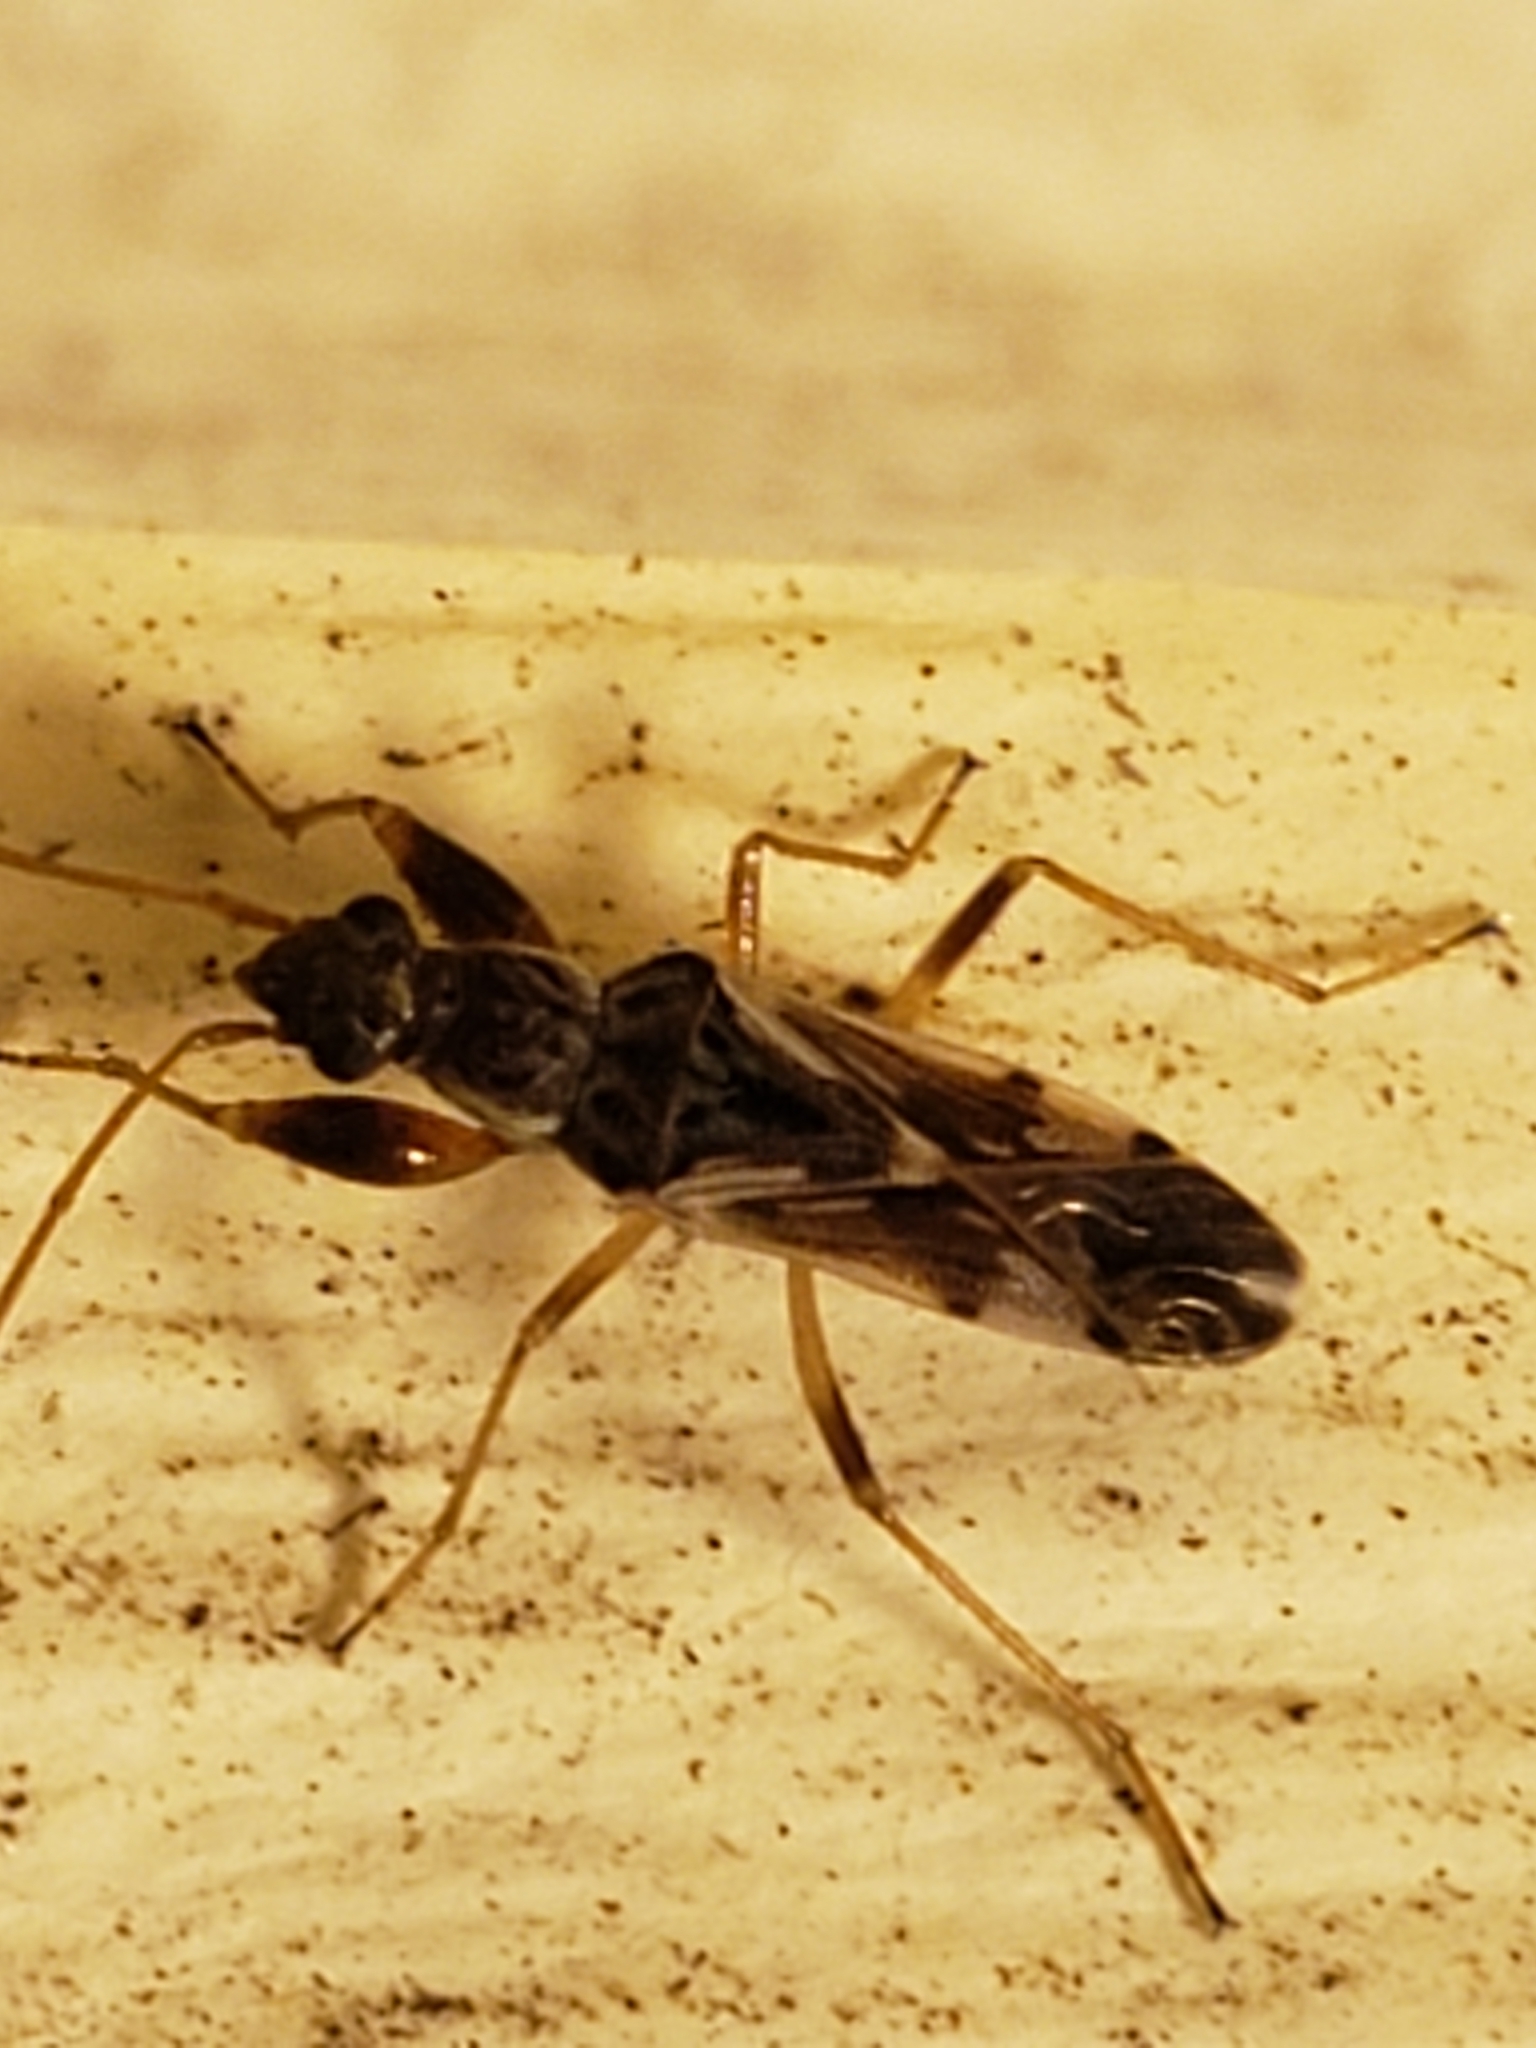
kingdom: Animalia
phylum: Arthropoda
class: Insecta
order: Hemiptera
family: Rhyparochromidae
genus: Neopamera
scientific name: Neopamera bilobata
